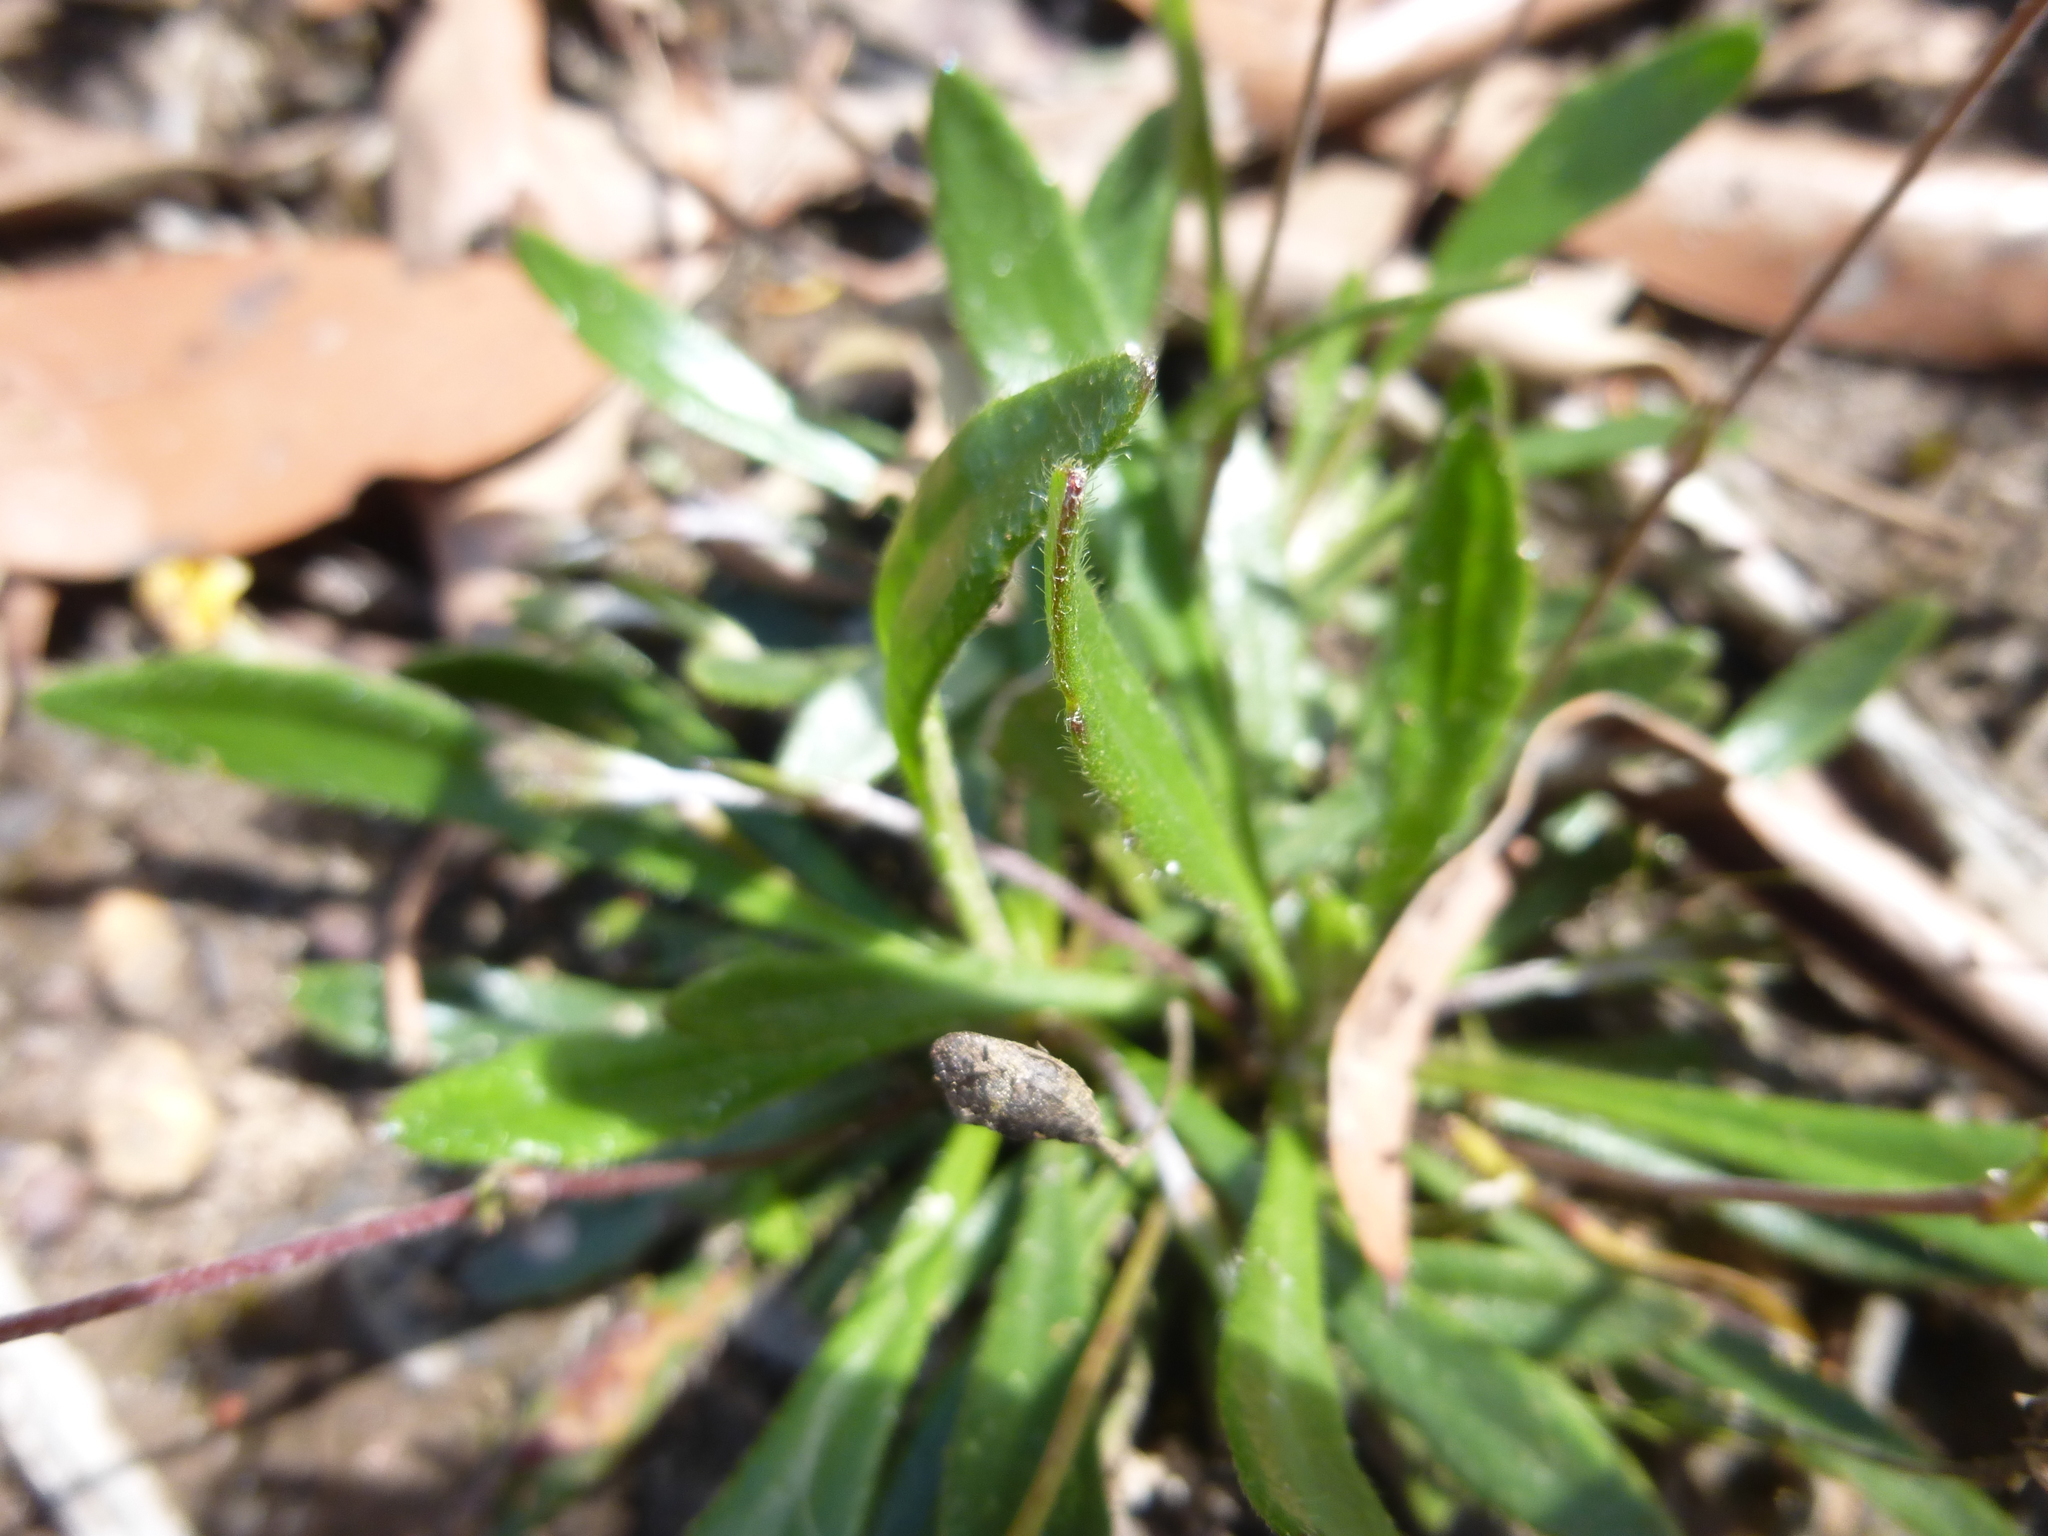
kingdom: Plantae
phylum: Tracheophyta
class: Magnoliopsida
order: Asterales
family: Goodeniaceae
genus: Goodenia
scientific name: Goodenia geniculata
